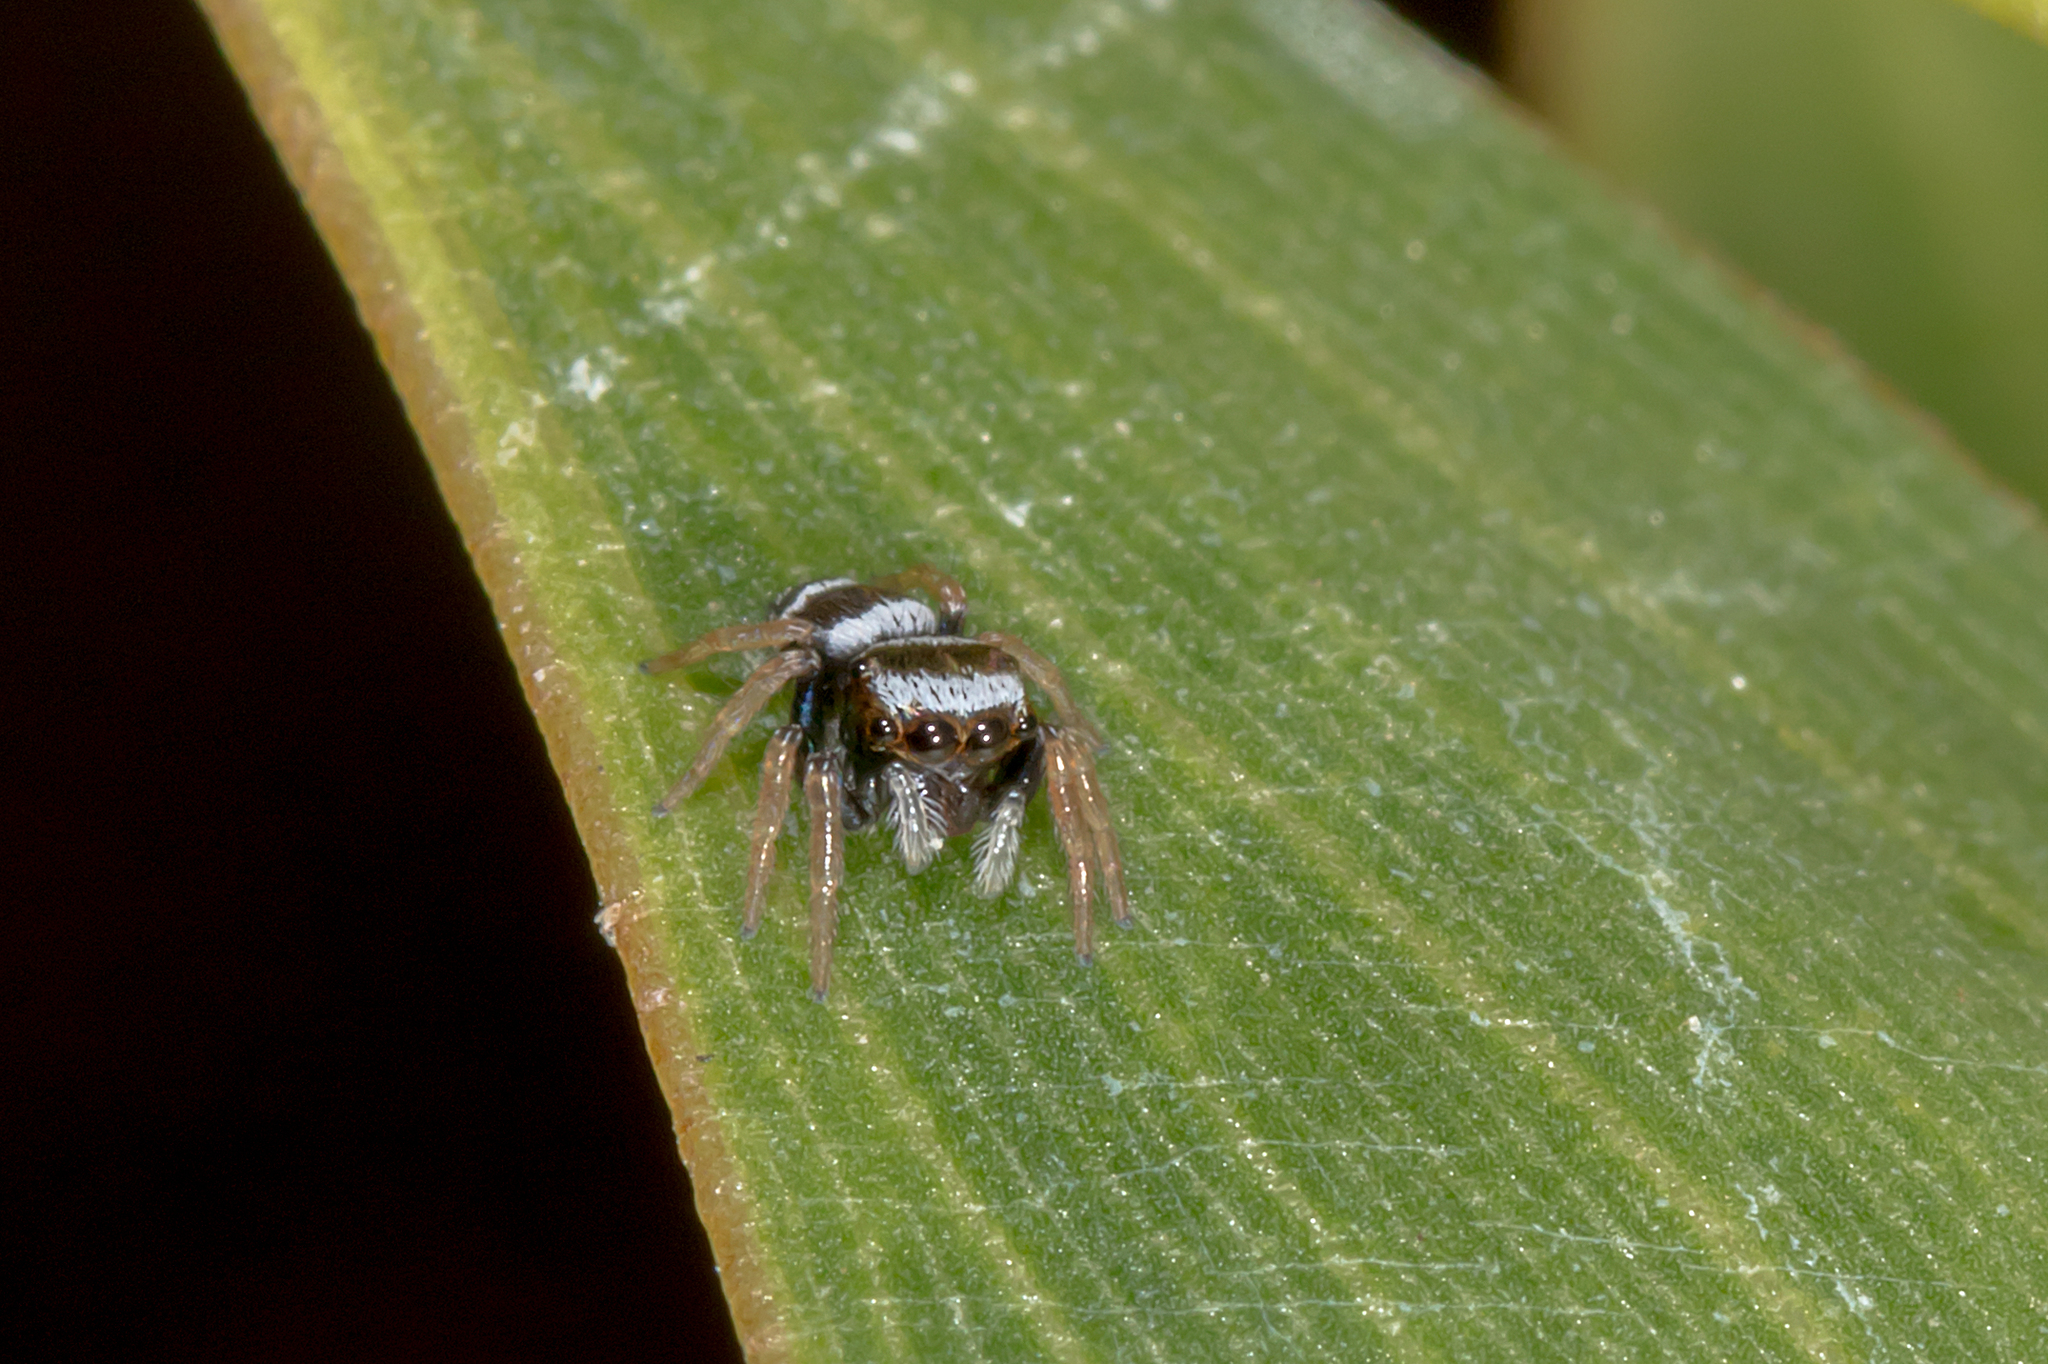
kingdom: Animalia
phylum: Arthropoda
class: Arachnida
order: Araneae
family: Salticidae
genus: Euryattus
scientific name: Euryattus bleekeri
